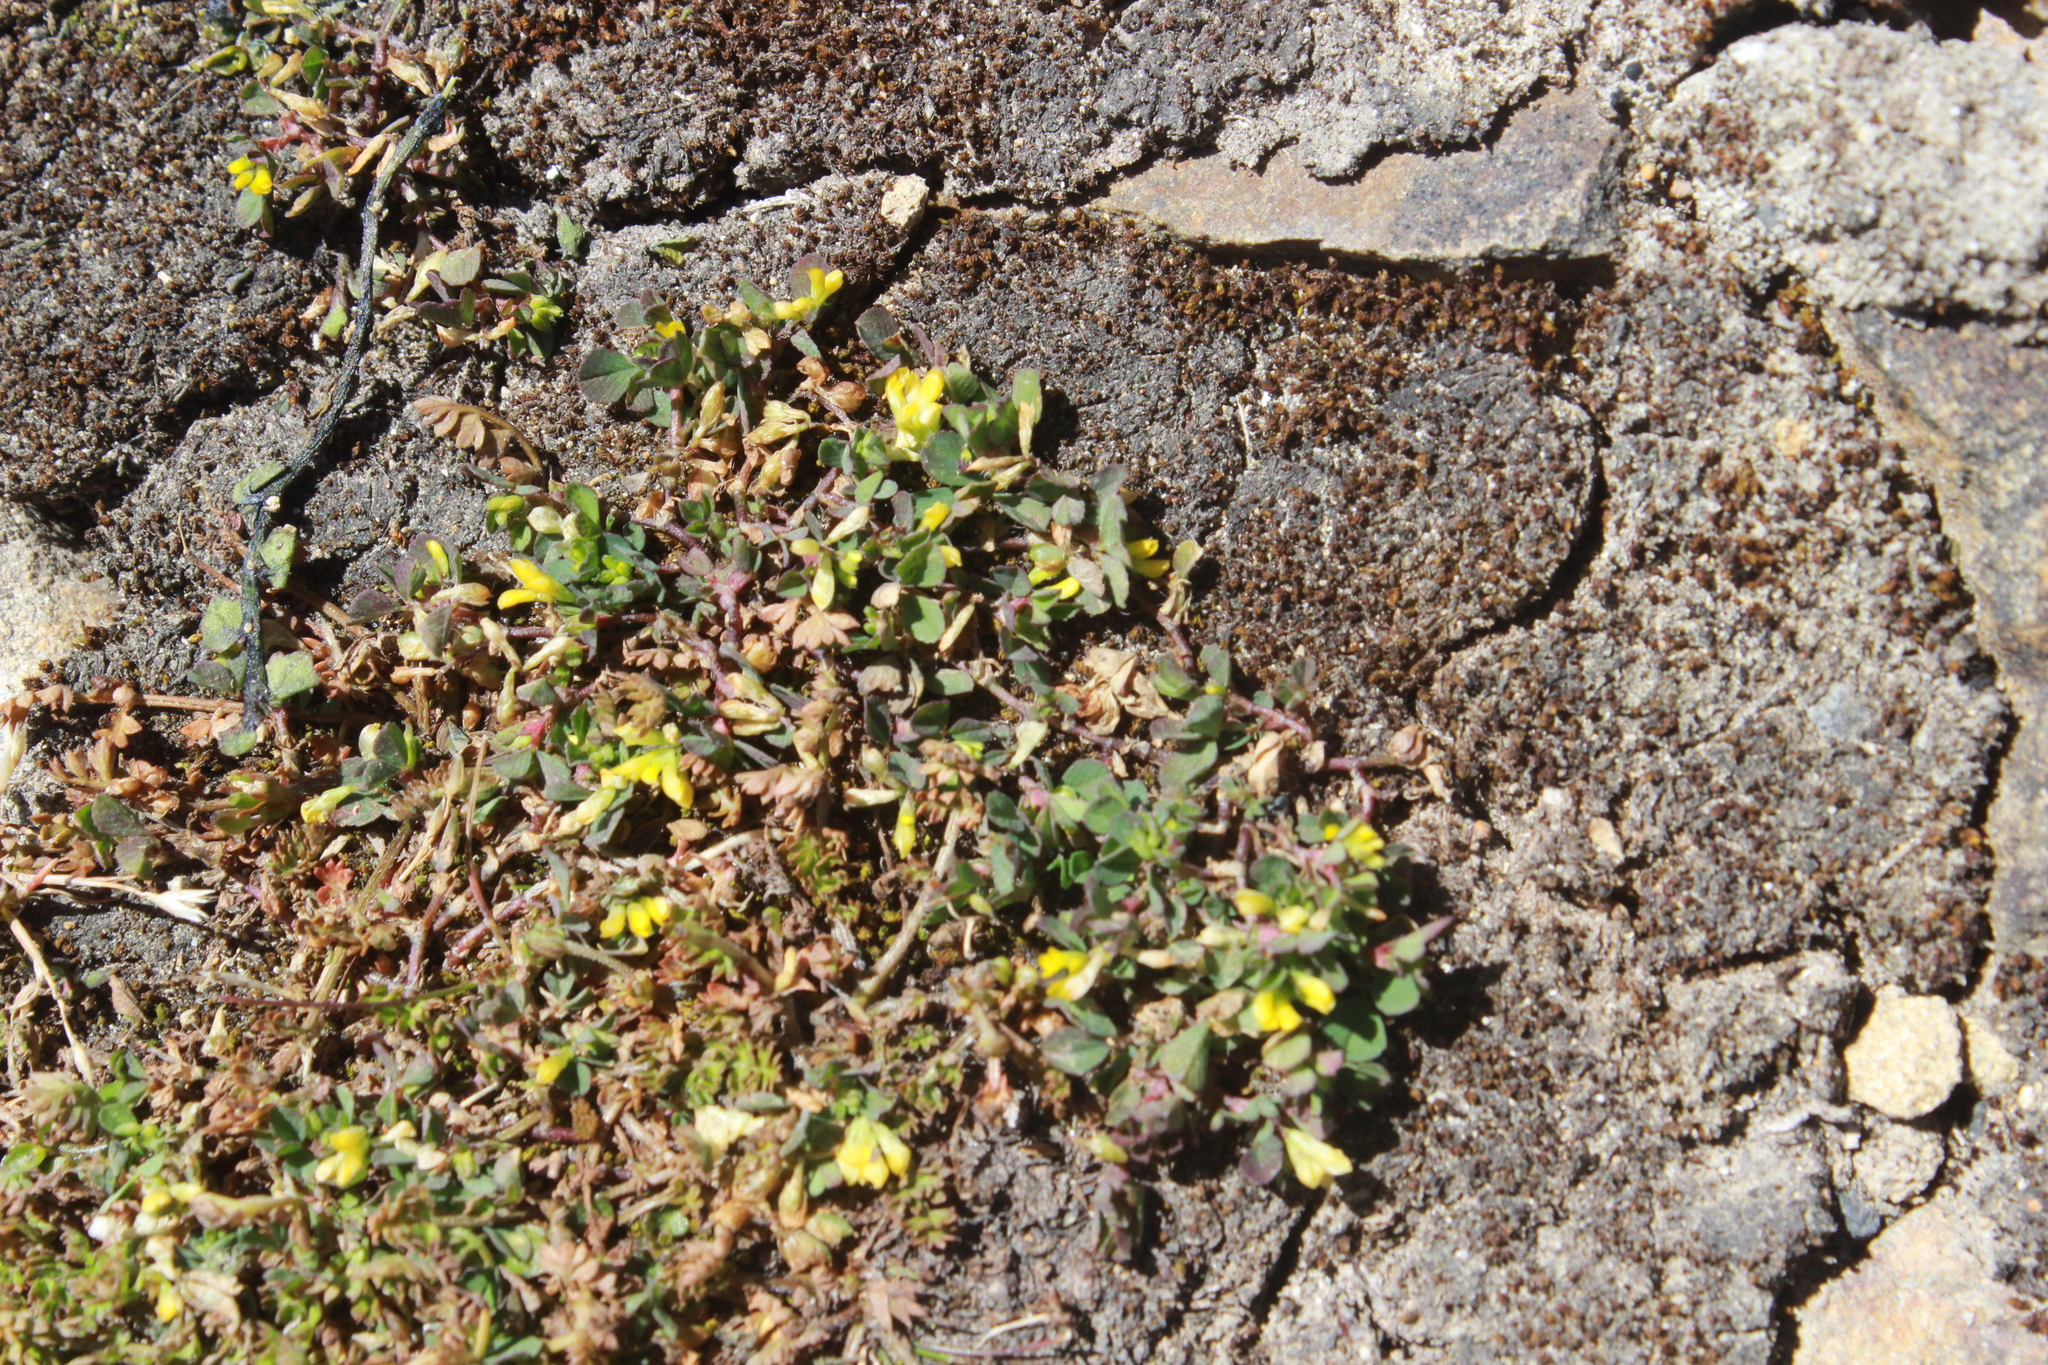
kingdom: Plantae
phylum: Tracheophyta
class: Magnoliopsida
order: Fabales
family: Fabaceae
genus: Trifolium
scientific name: Trifolium micranthum
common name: Slender trefoil
